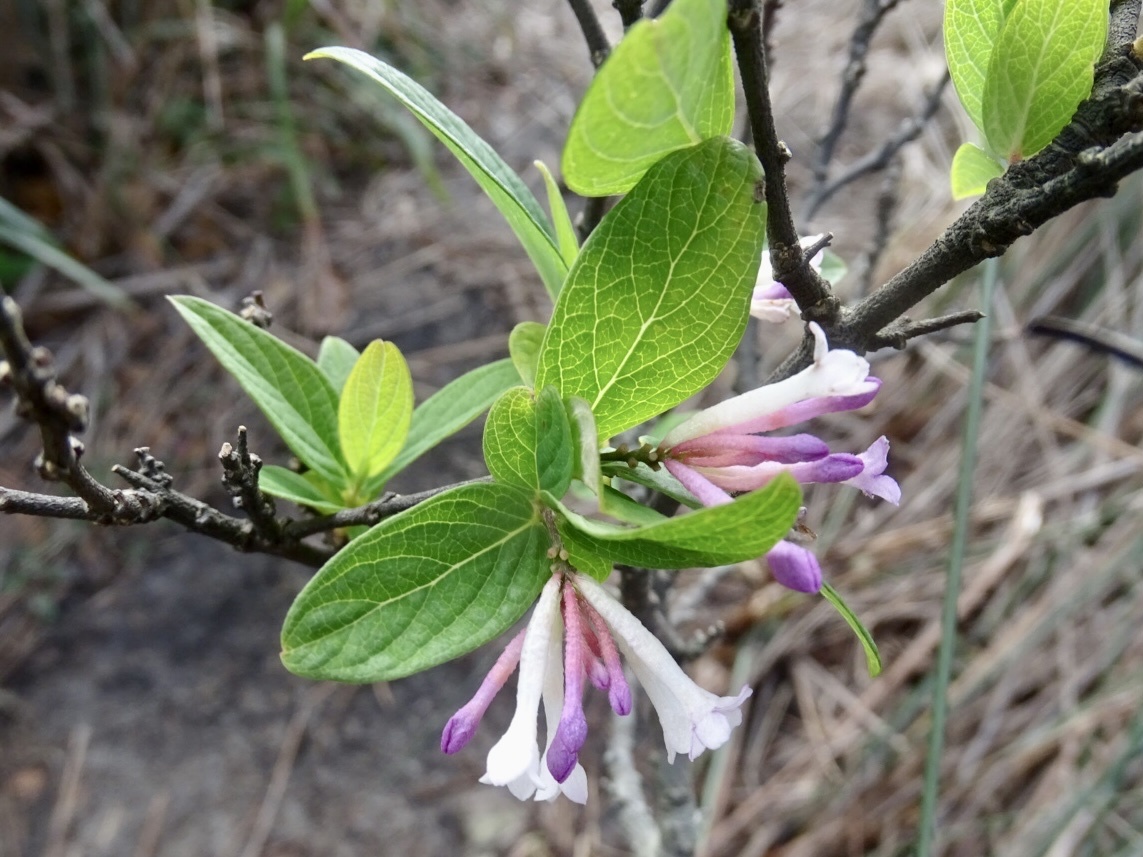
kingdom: Plantae
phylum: Tracheophyta
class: Magnoliopsida
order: Malvales
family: Thymelaeaceae
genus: Wikstroemia
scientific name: Wikstroemia monnula
